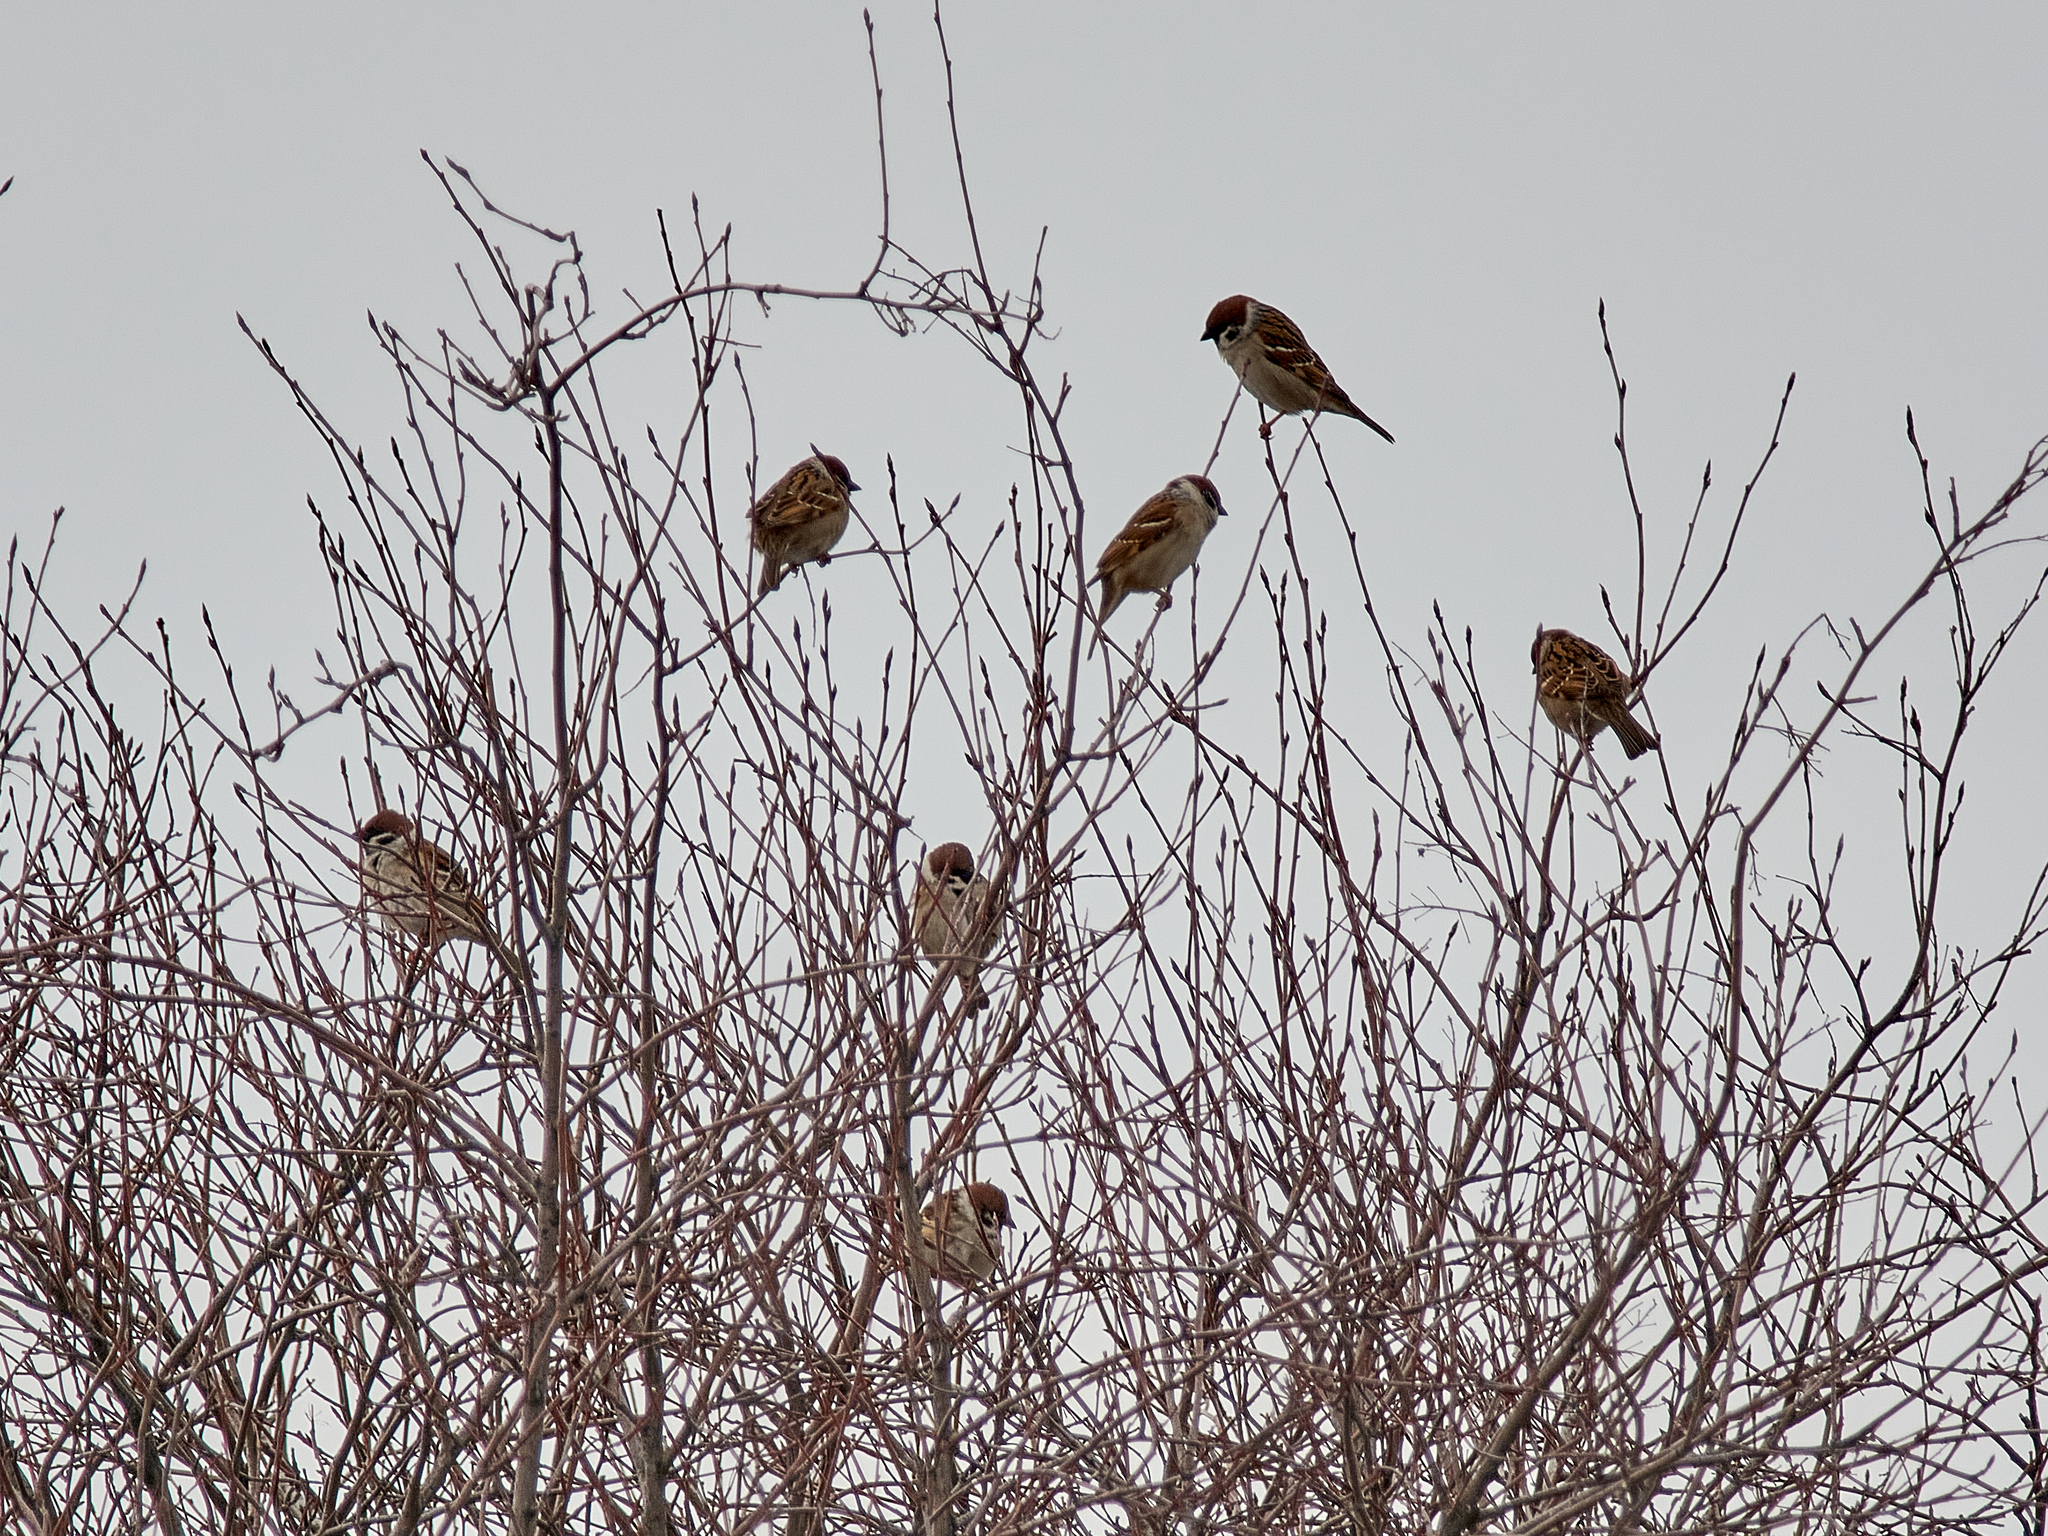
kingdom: Animalia
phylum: Chordata
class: Aves
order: Passeriformes
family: Passeridae
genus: Passer
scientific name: Passer montanus
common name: Eurasian tree sparrow
